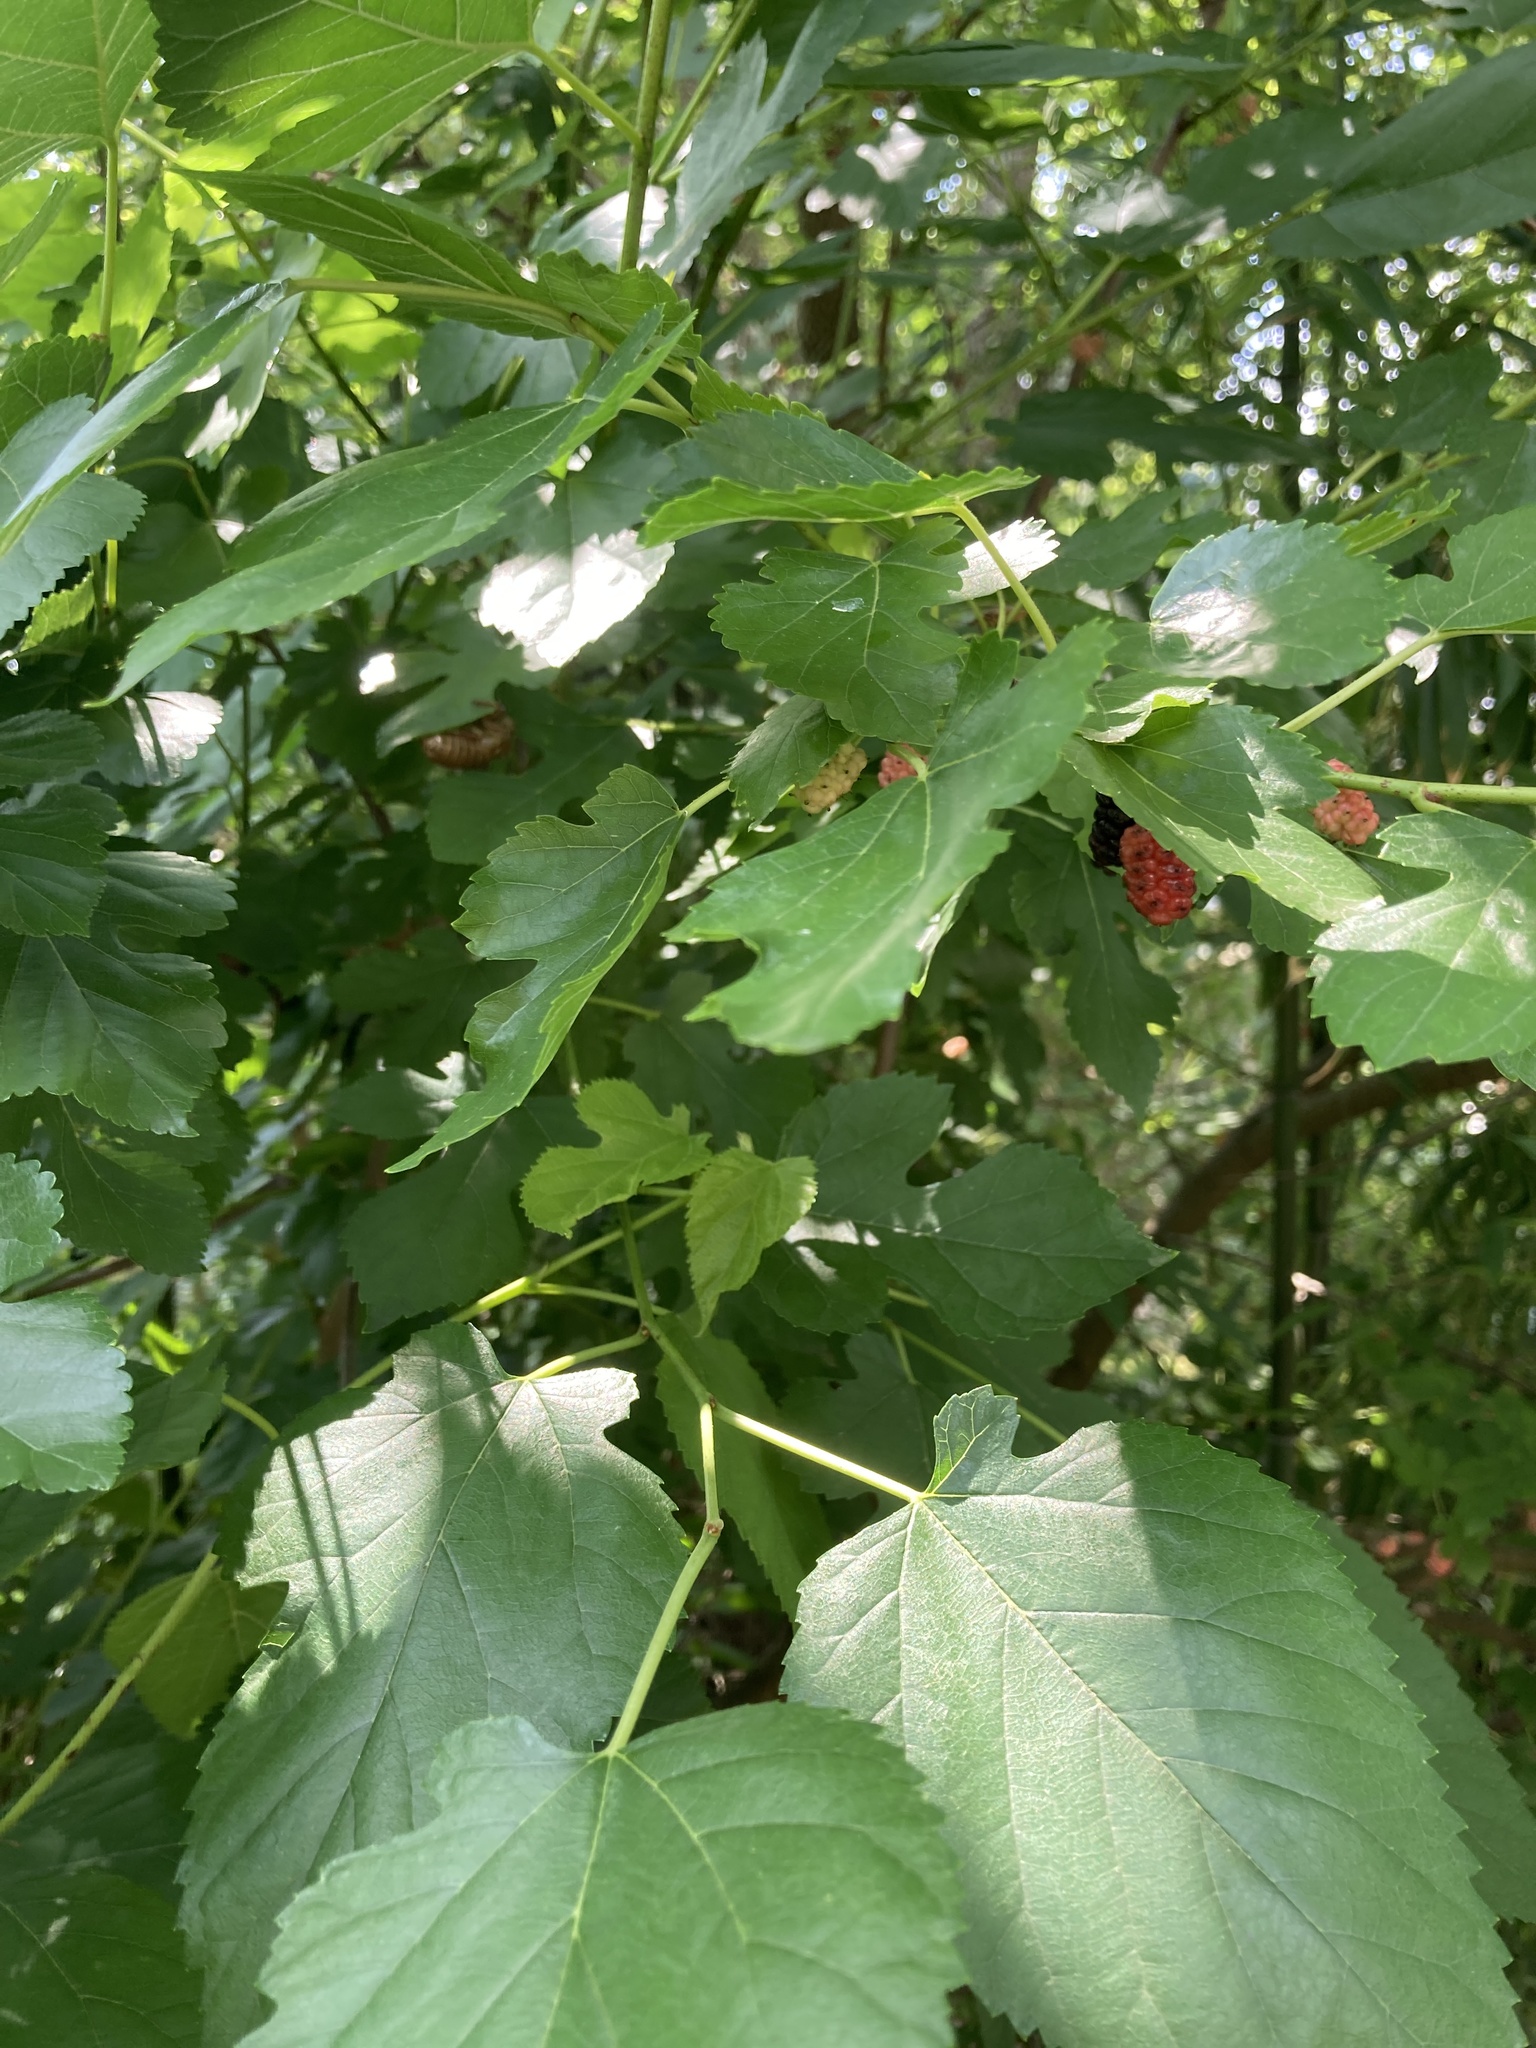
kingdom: Plantae
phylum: Tracheophyta
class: Magnoliopsida
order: Rosales
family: Moraceae
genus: Morus
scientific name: Morus alba
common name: White mulberry
